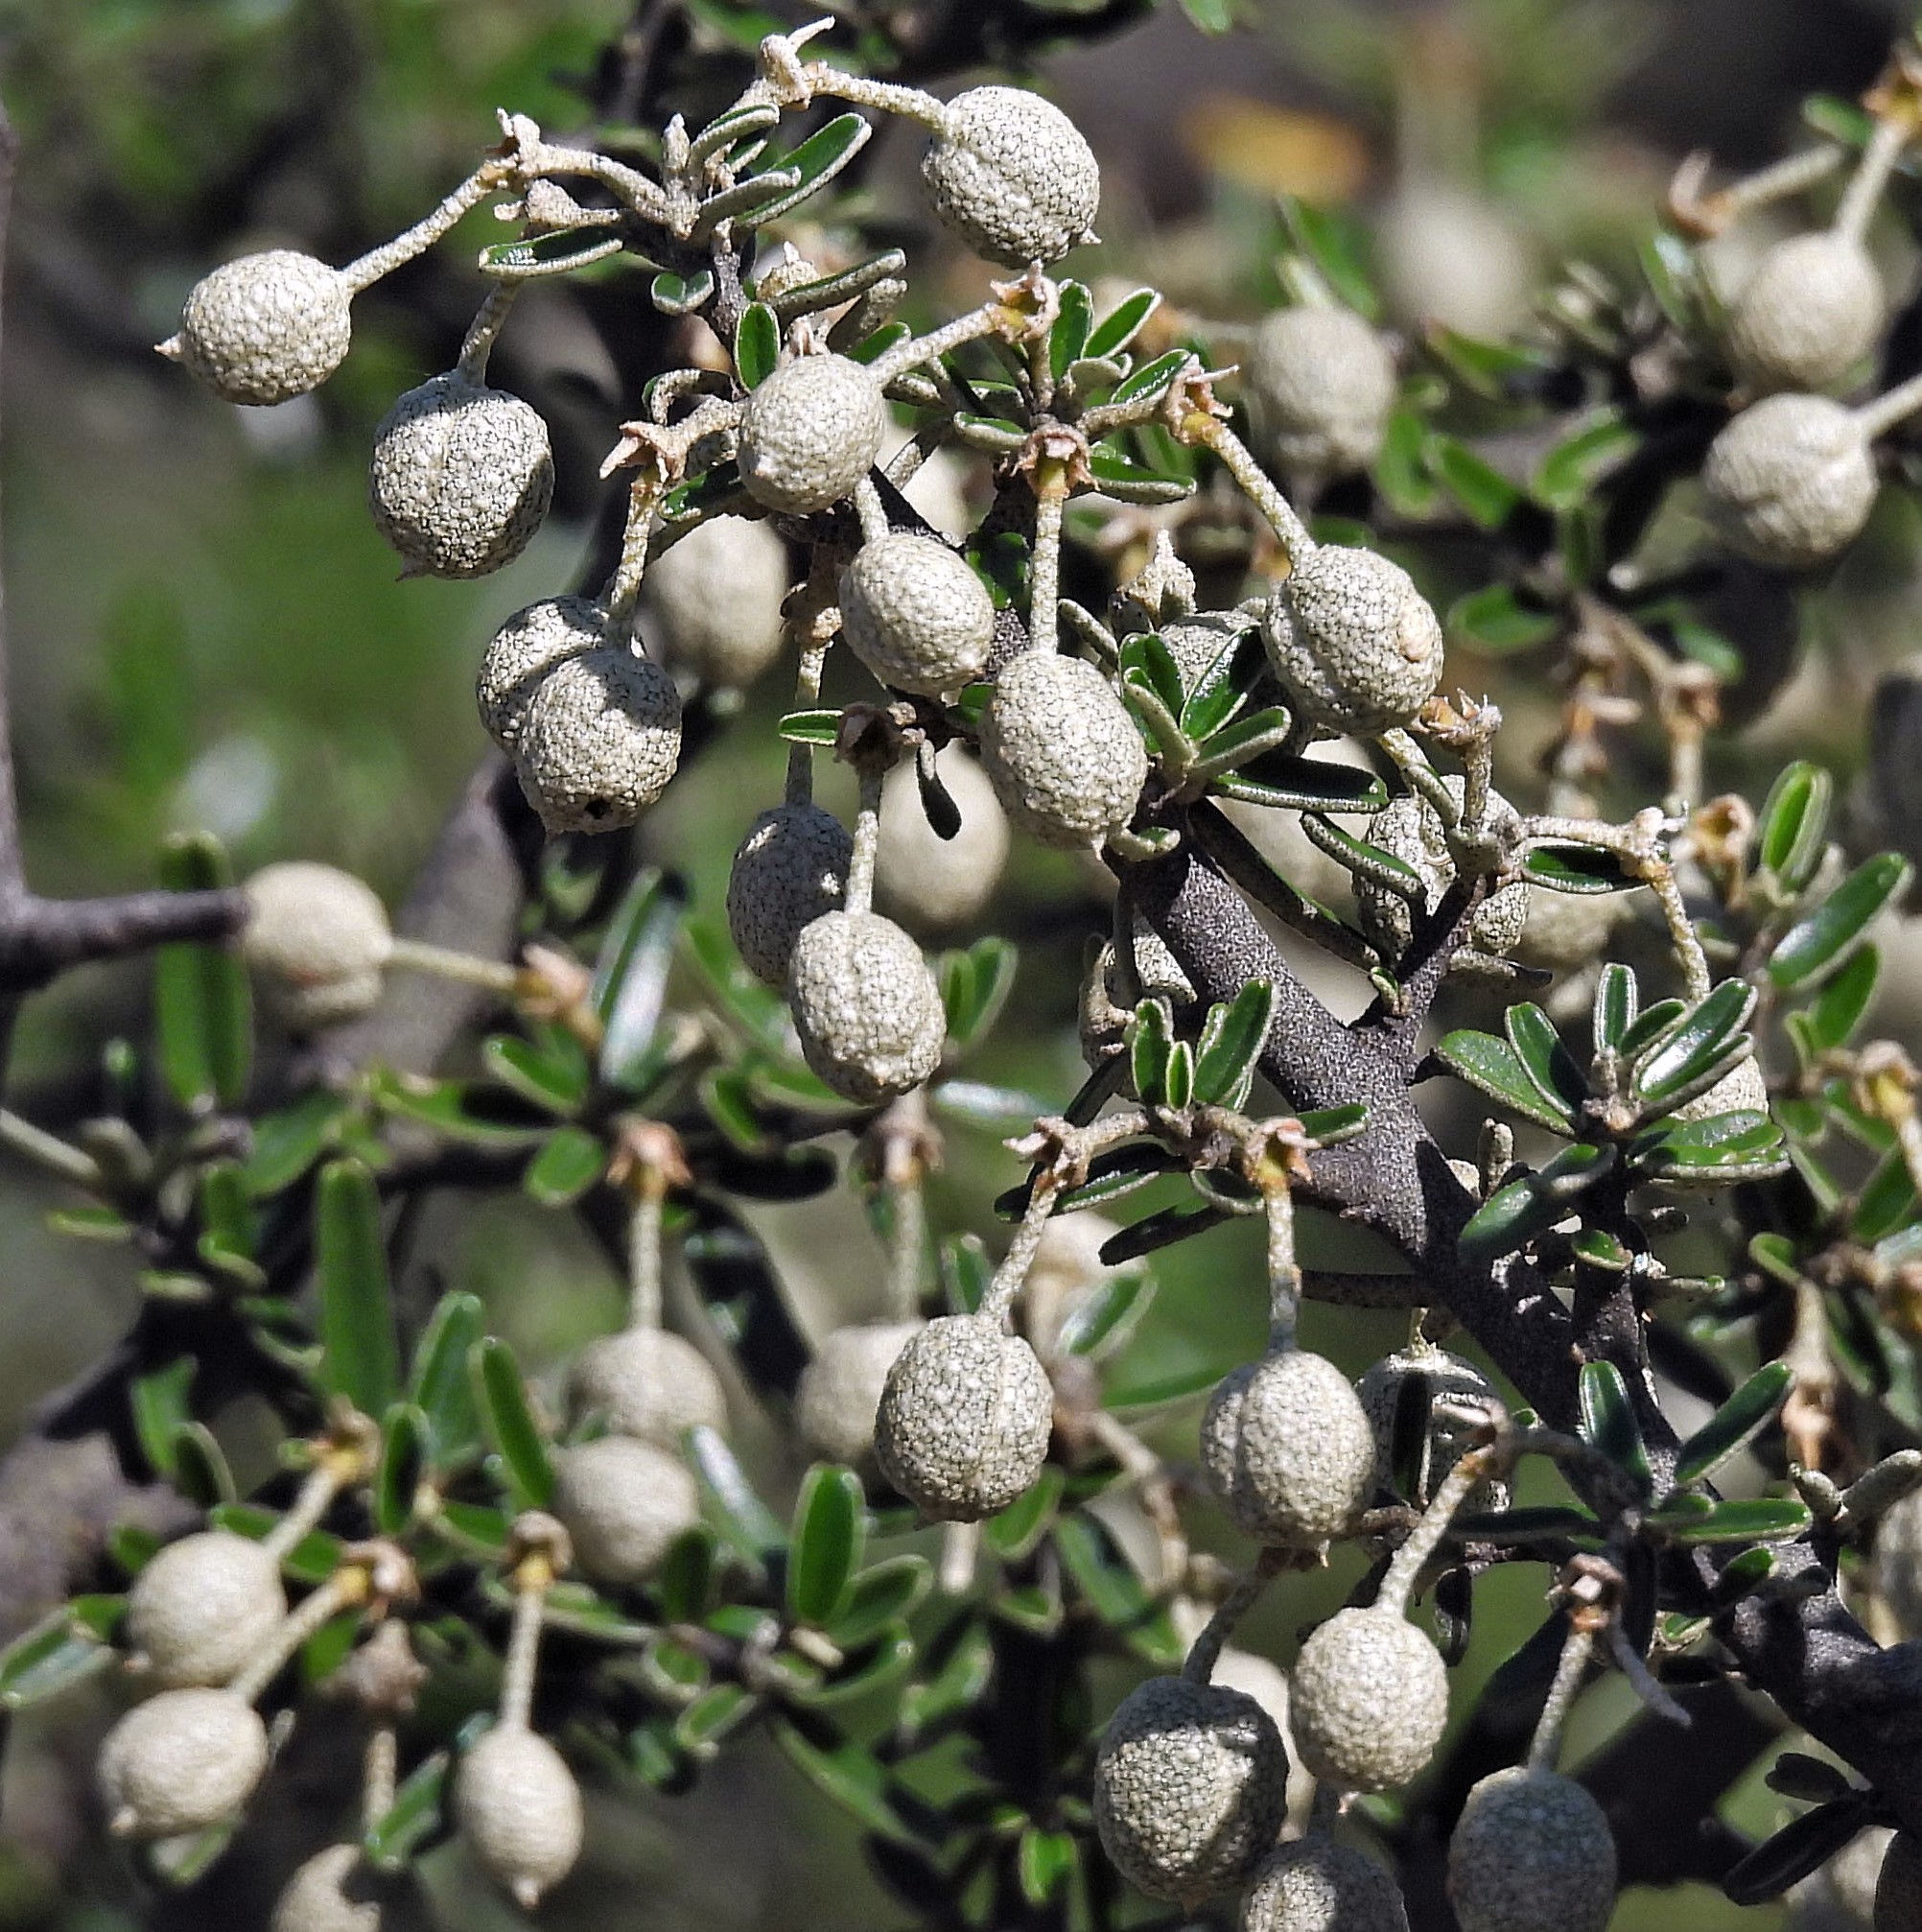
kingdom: Plantae
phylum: Tracheophyta
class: Magnoliopsida
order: Brassicales
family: Capparaceae
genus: Atamisquea
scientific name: Atamisquea emarginata
